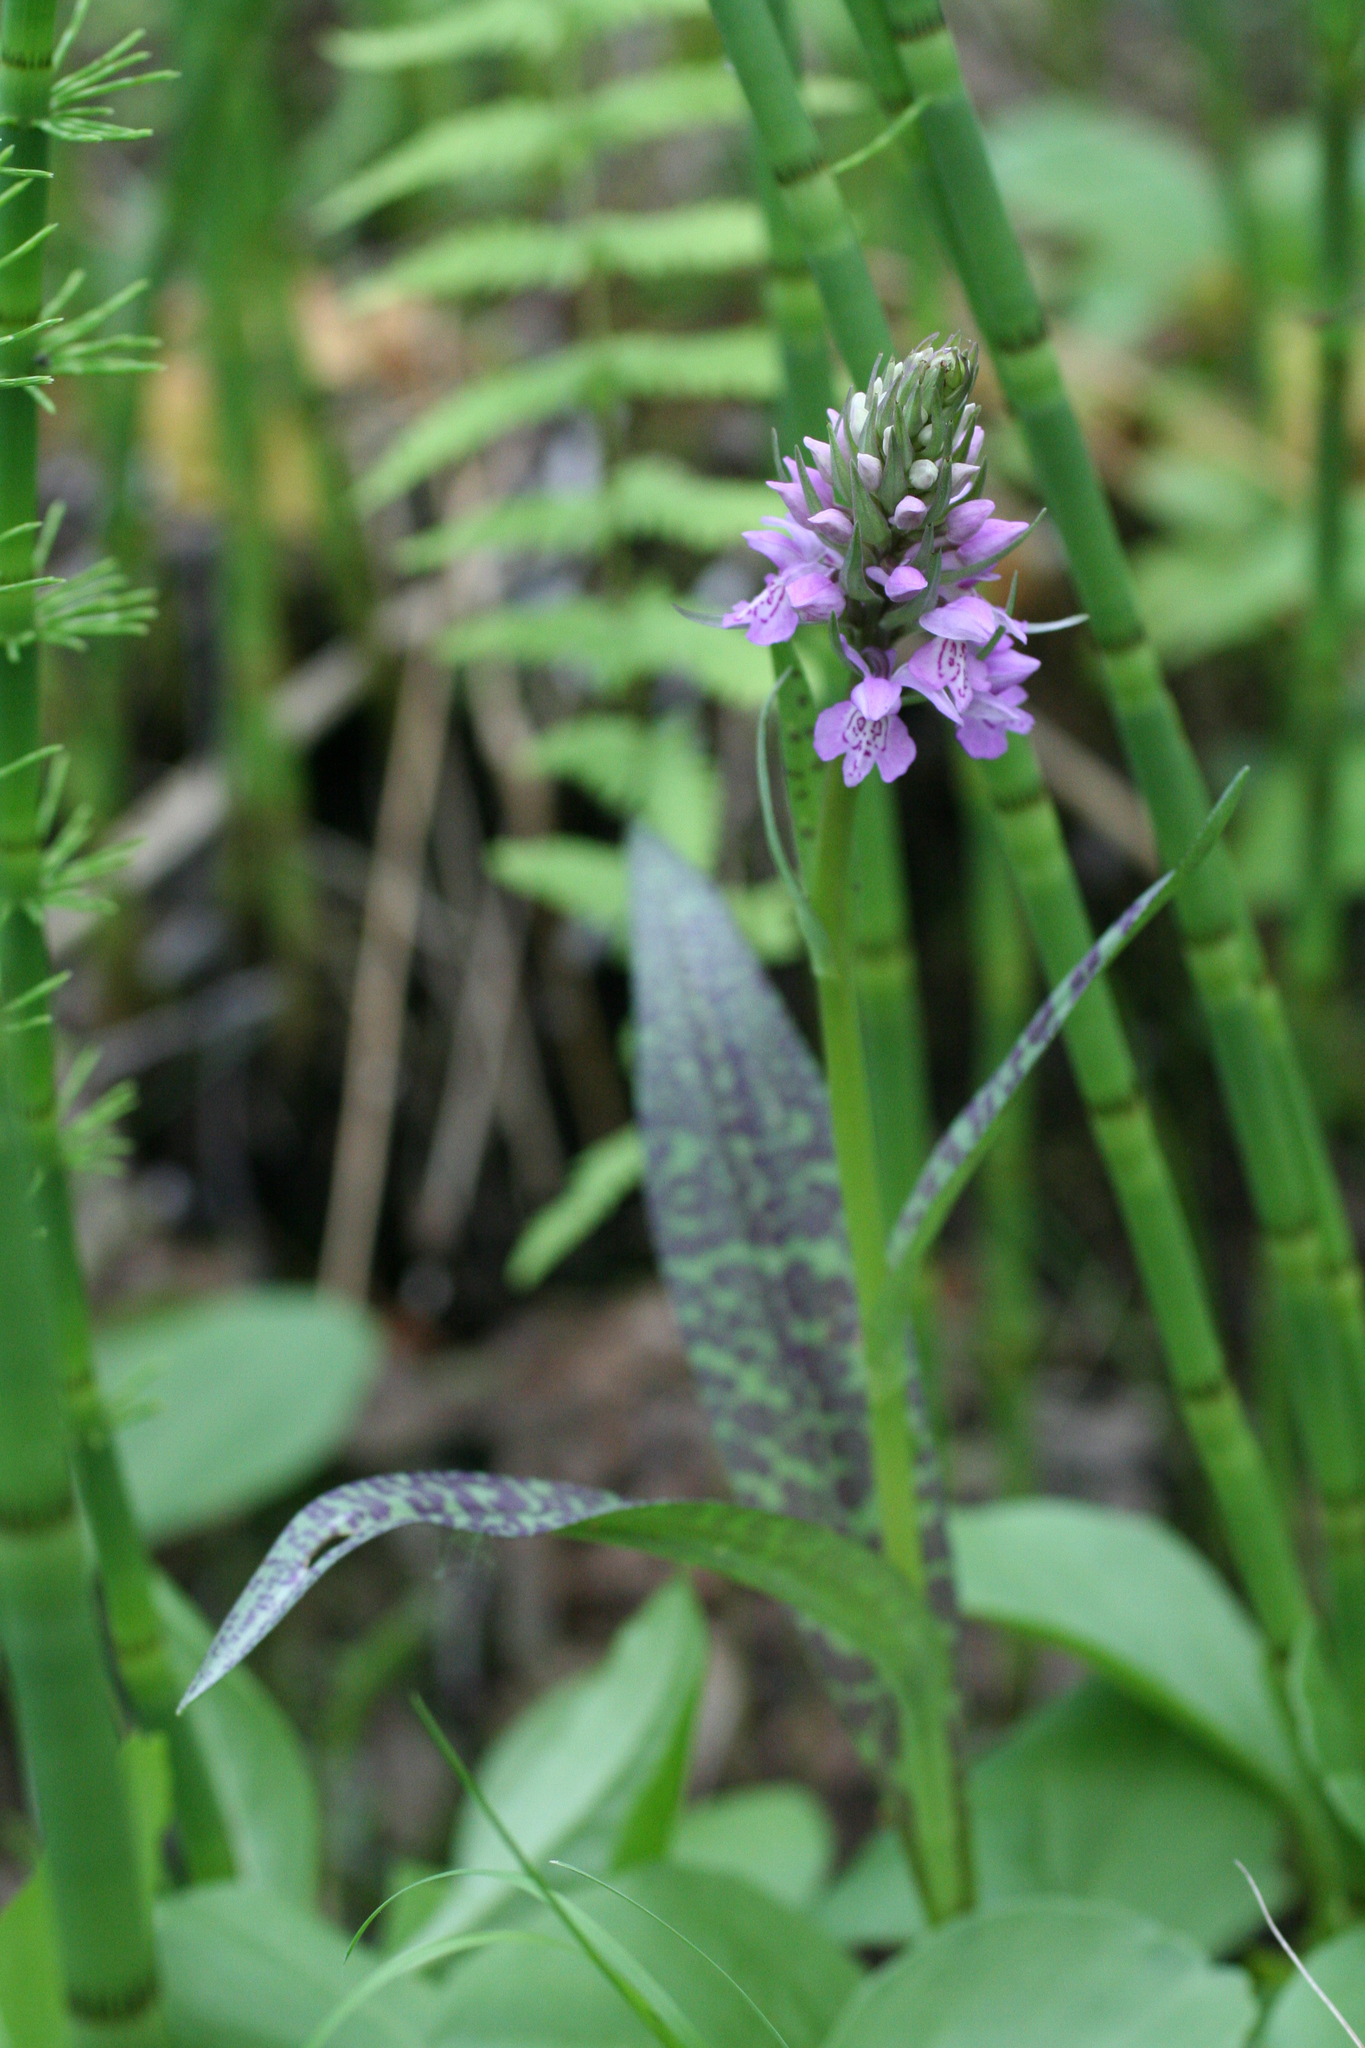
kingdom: Plantae
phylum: Tracheophyta
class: Liliopsida
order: Asparagales
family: Orchidaceae
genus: Dactylorhiza
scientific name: Dactylorhiza maculata
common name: Heath spotted-orchid
